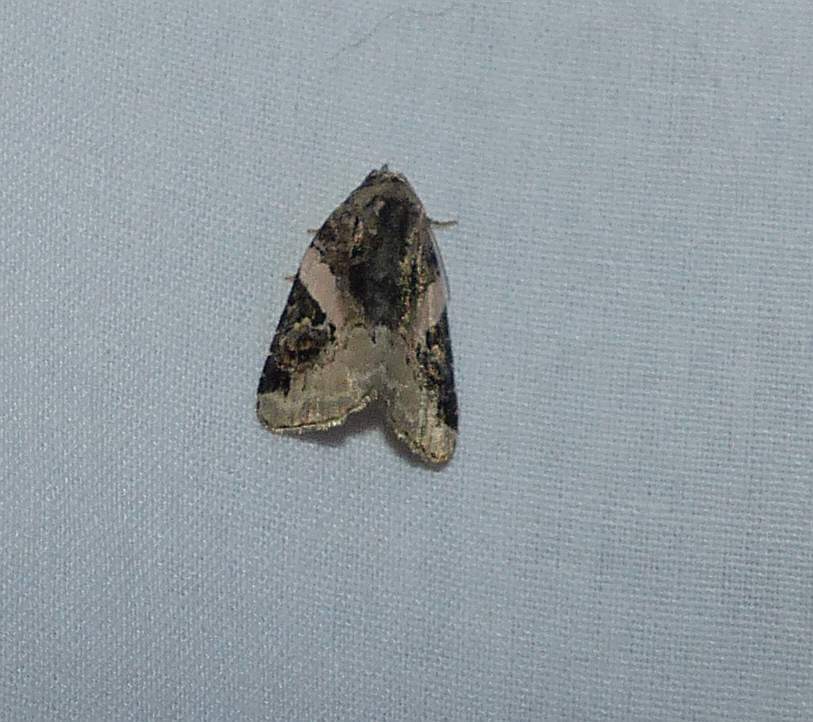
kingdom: Animalia
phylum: Arthropoda
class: Insecta
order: Lepidoptera
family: Noctuidae
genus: Pseudeustrotia
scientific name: Pseudeustrotia carneola
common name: Pink-barred lithacodia moth
